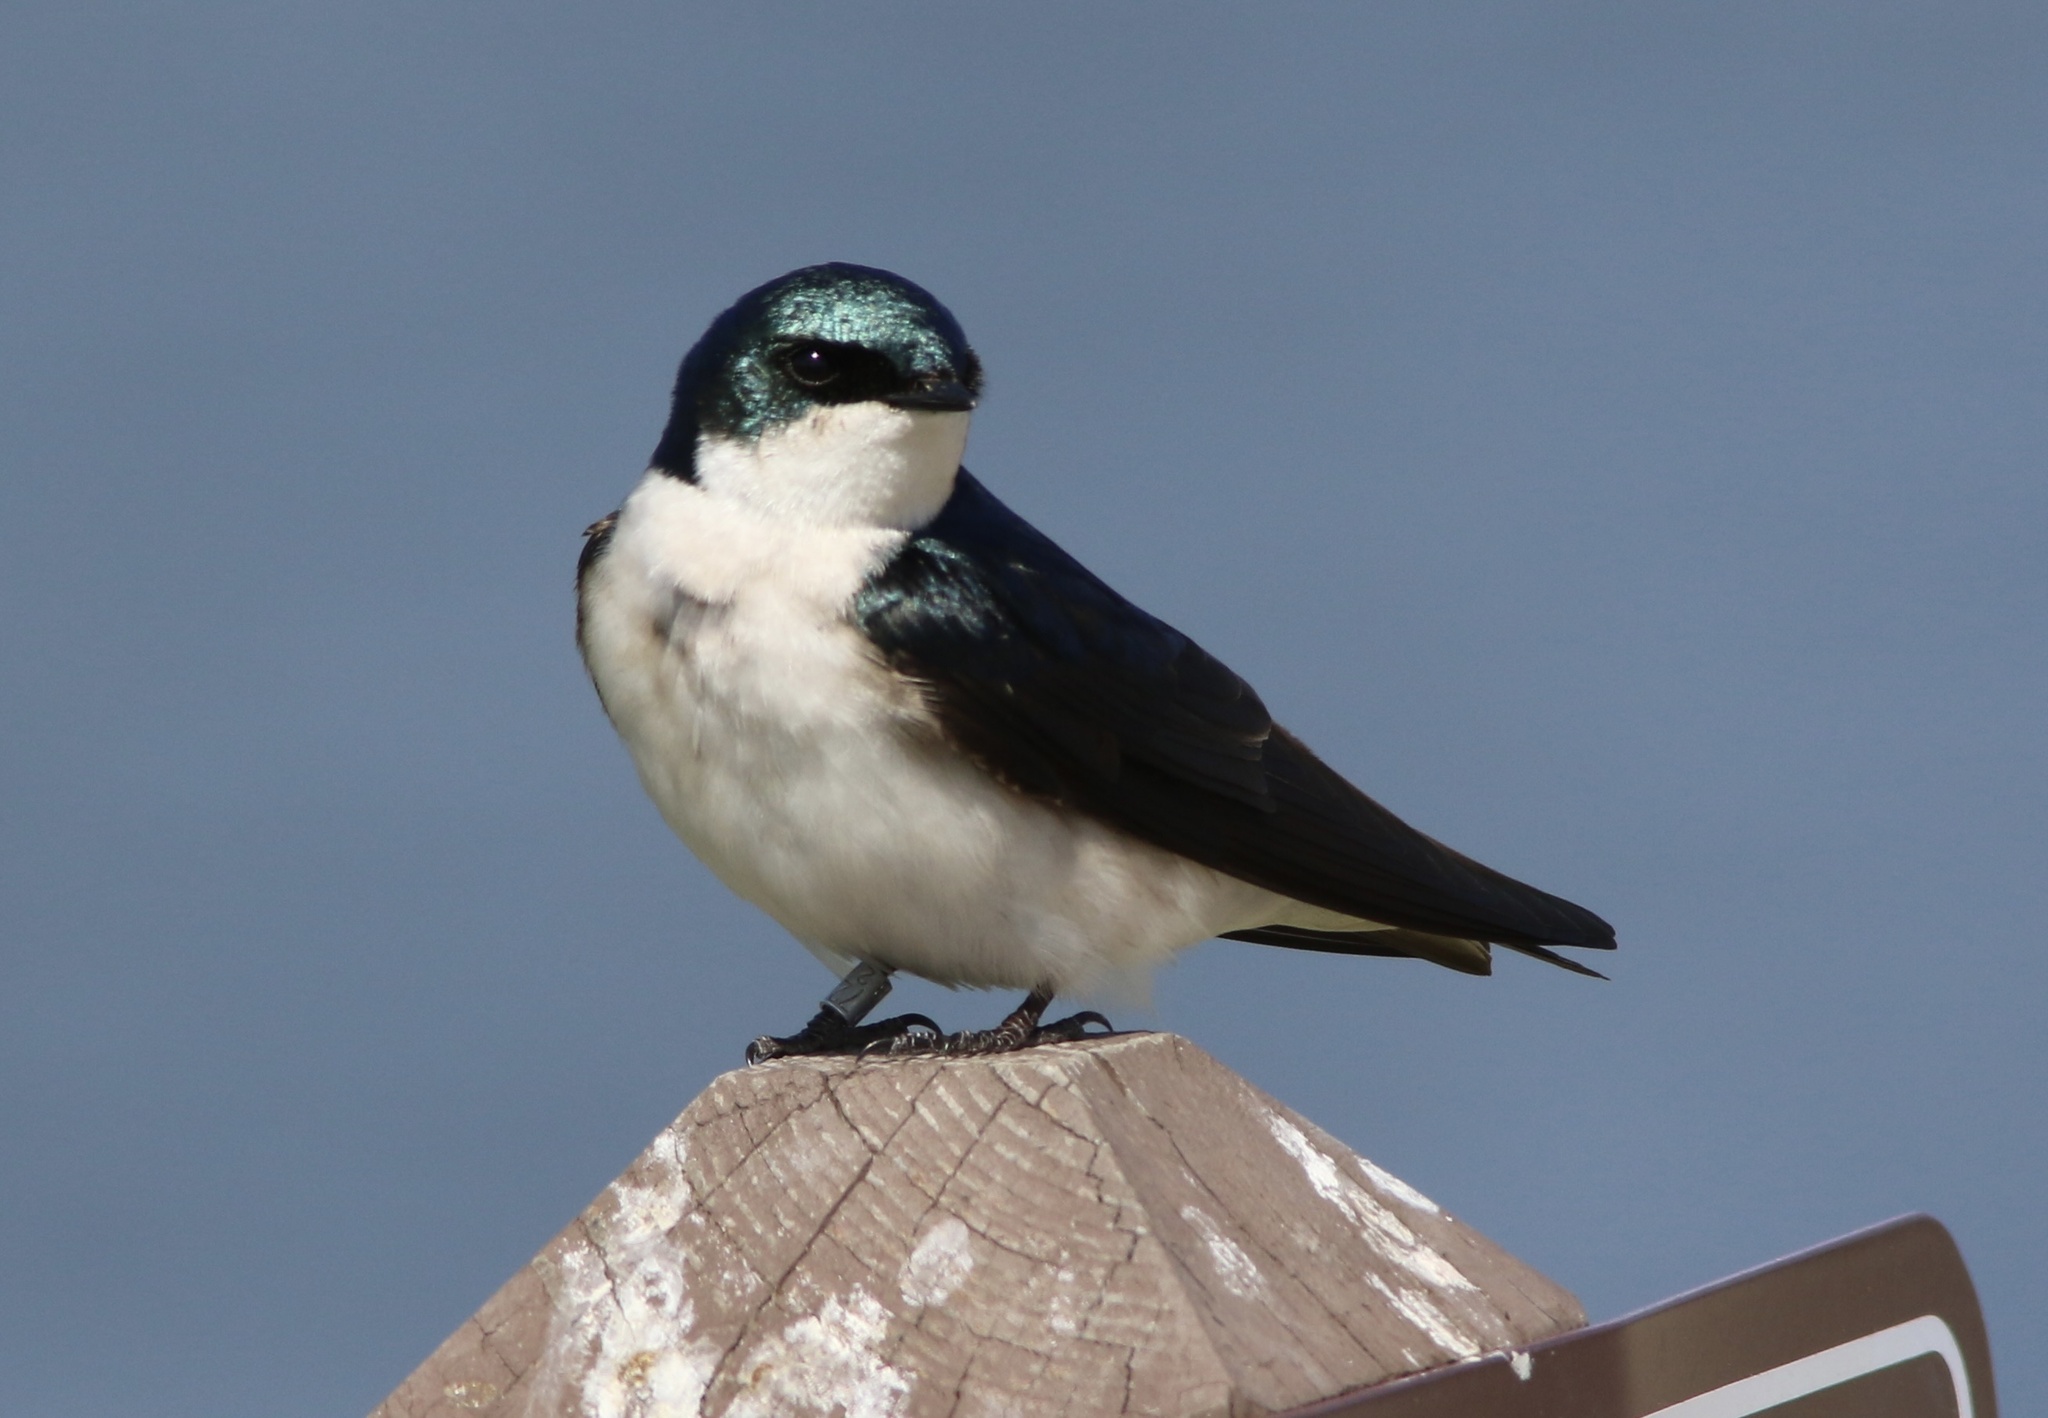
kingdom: Animalia
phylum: Chordata
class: Aves
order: Passeriformes
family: Hirundinidae
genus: Tachycineta
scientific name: Tachycineta bicolor
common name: Tree swallow
